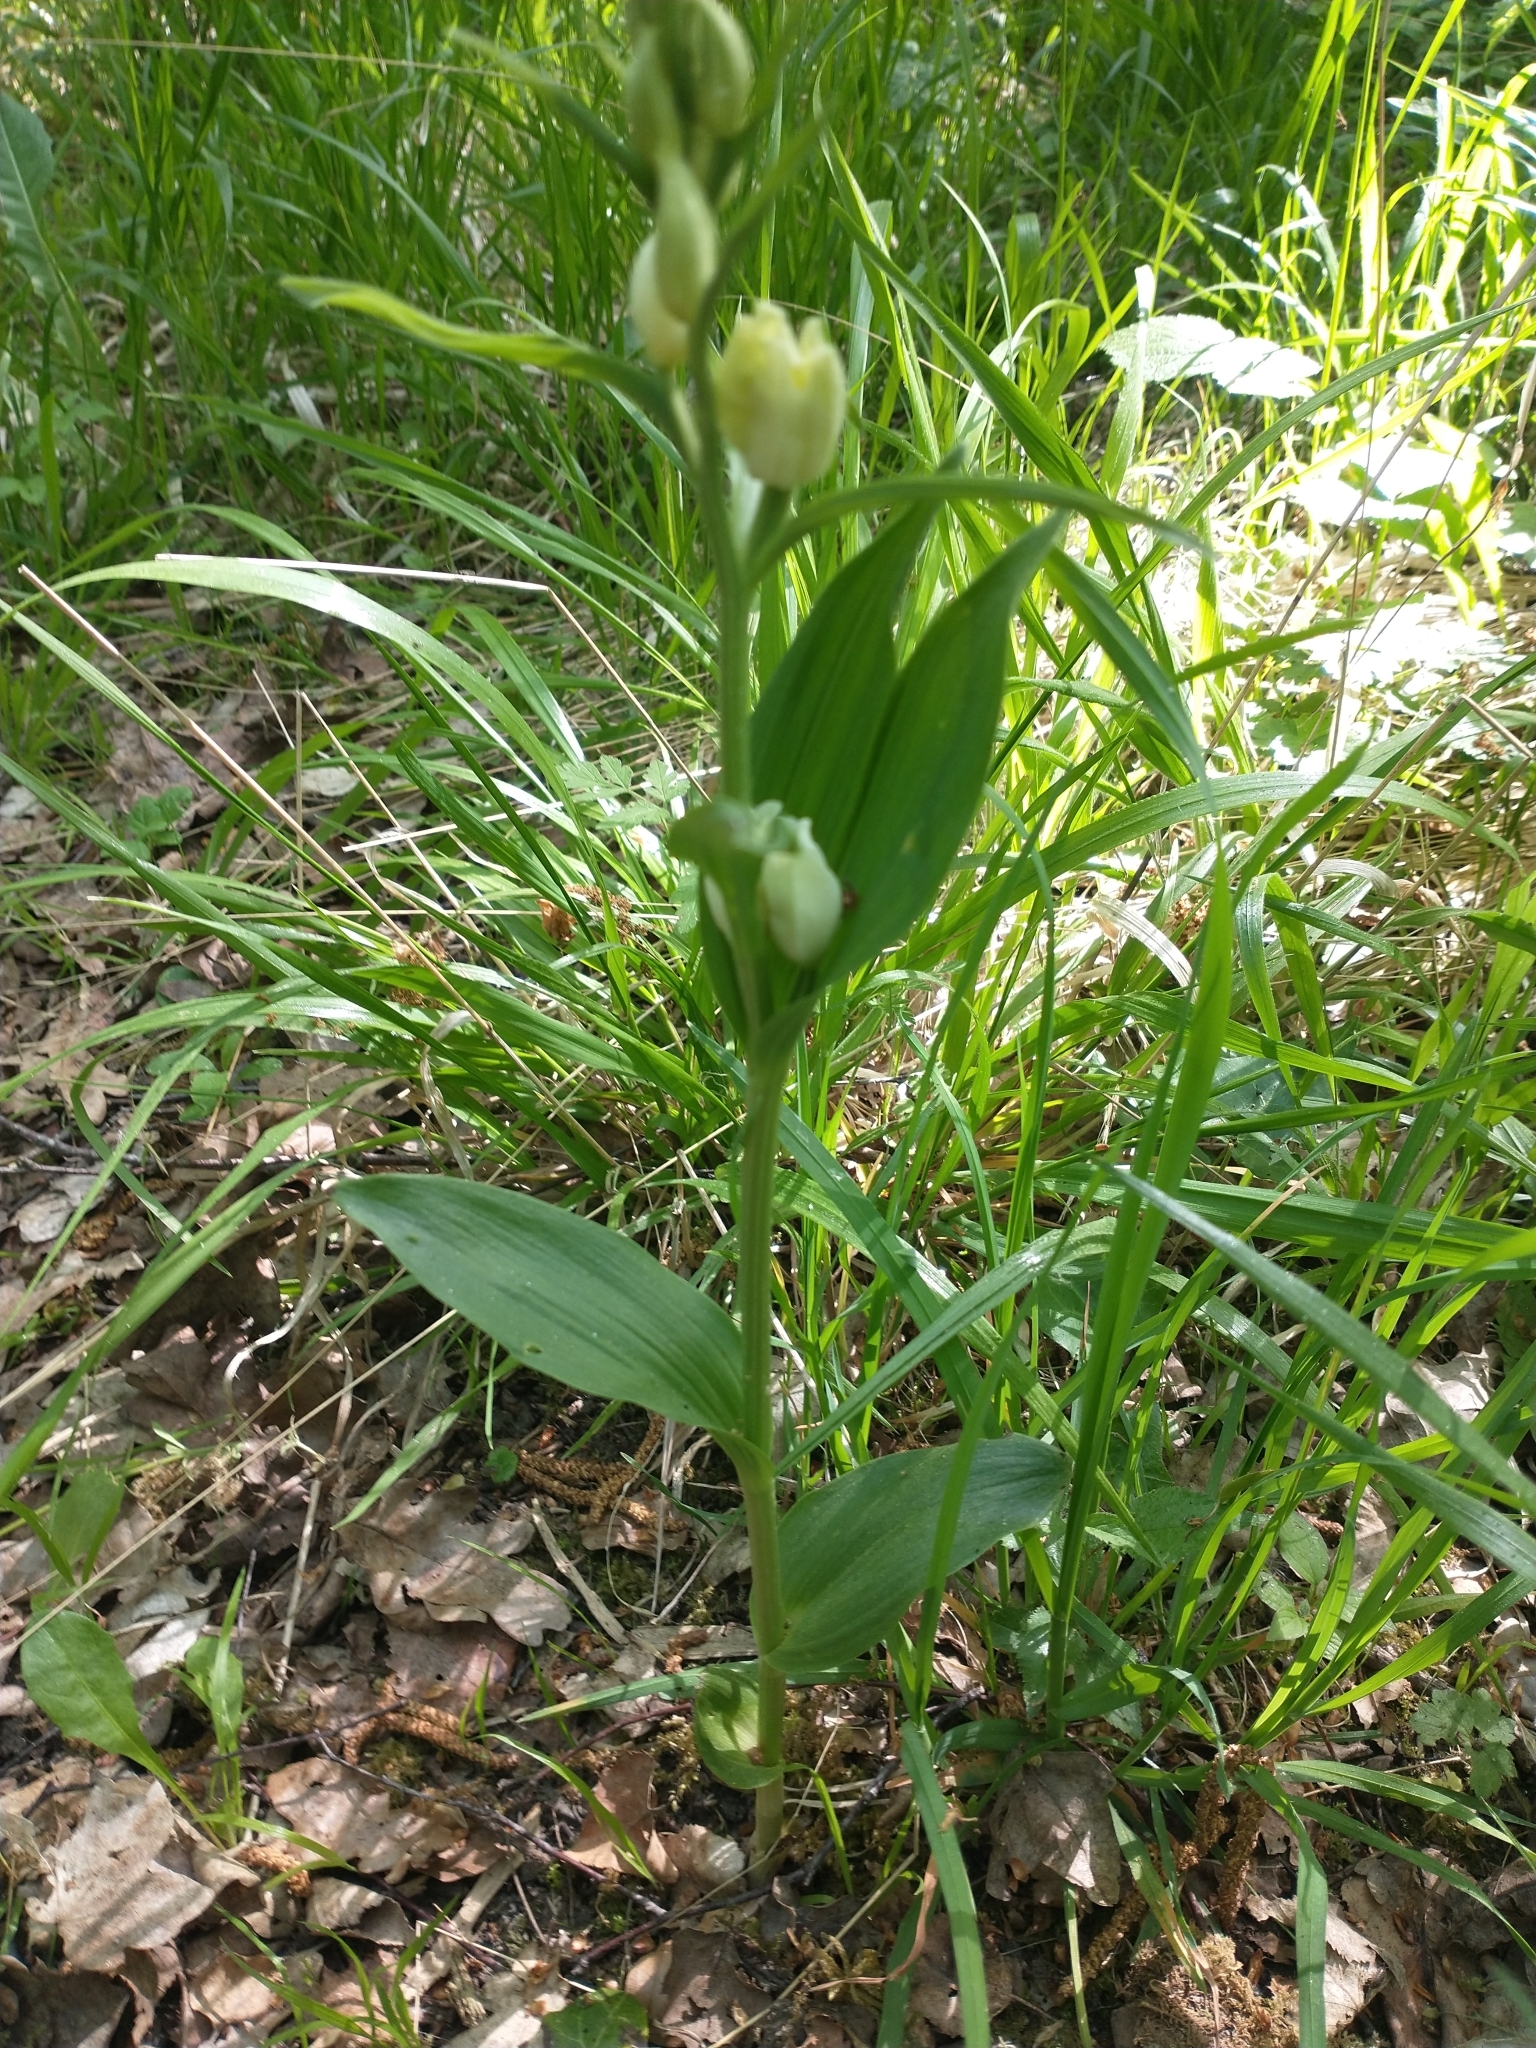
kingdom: Plantae
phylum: Tracheophyta
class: Liliopsida
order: Asparagales
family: Orchidaceae
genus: Cephalanthera
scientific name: Cephalanthera damasonium
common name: White helleborine
